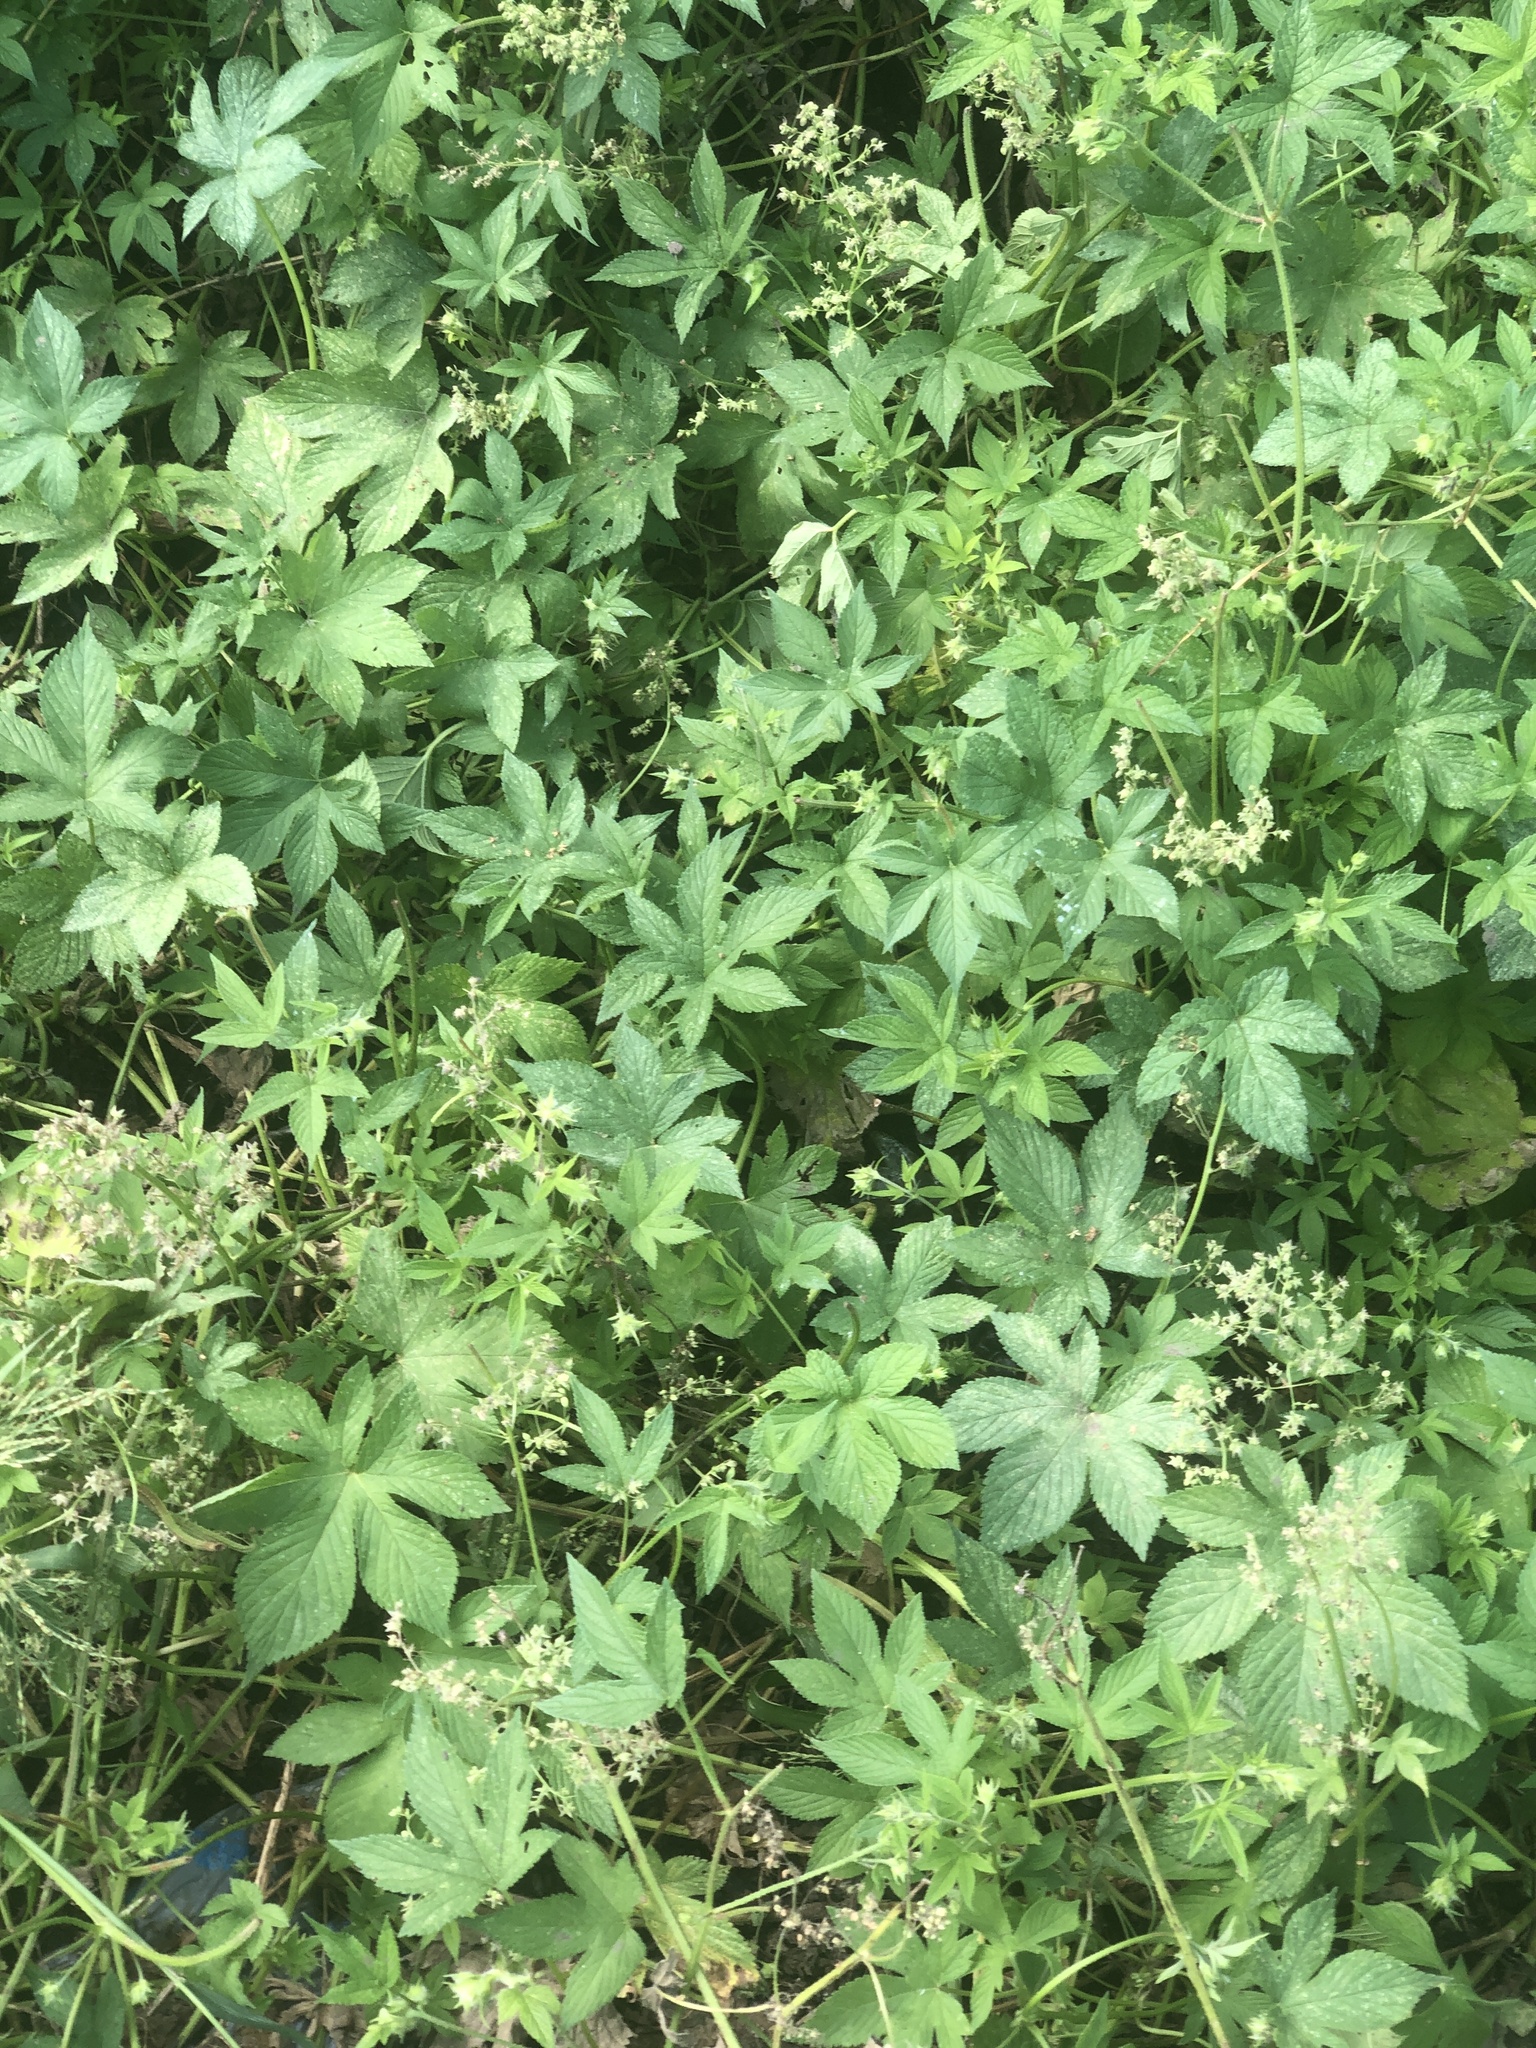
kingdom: Plantae
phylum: Tracheophyta
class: Magnoliopsida
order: Rosales
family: Cannabaceae
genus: Humulus
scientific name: Humulus scandens
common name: Japanese hop
